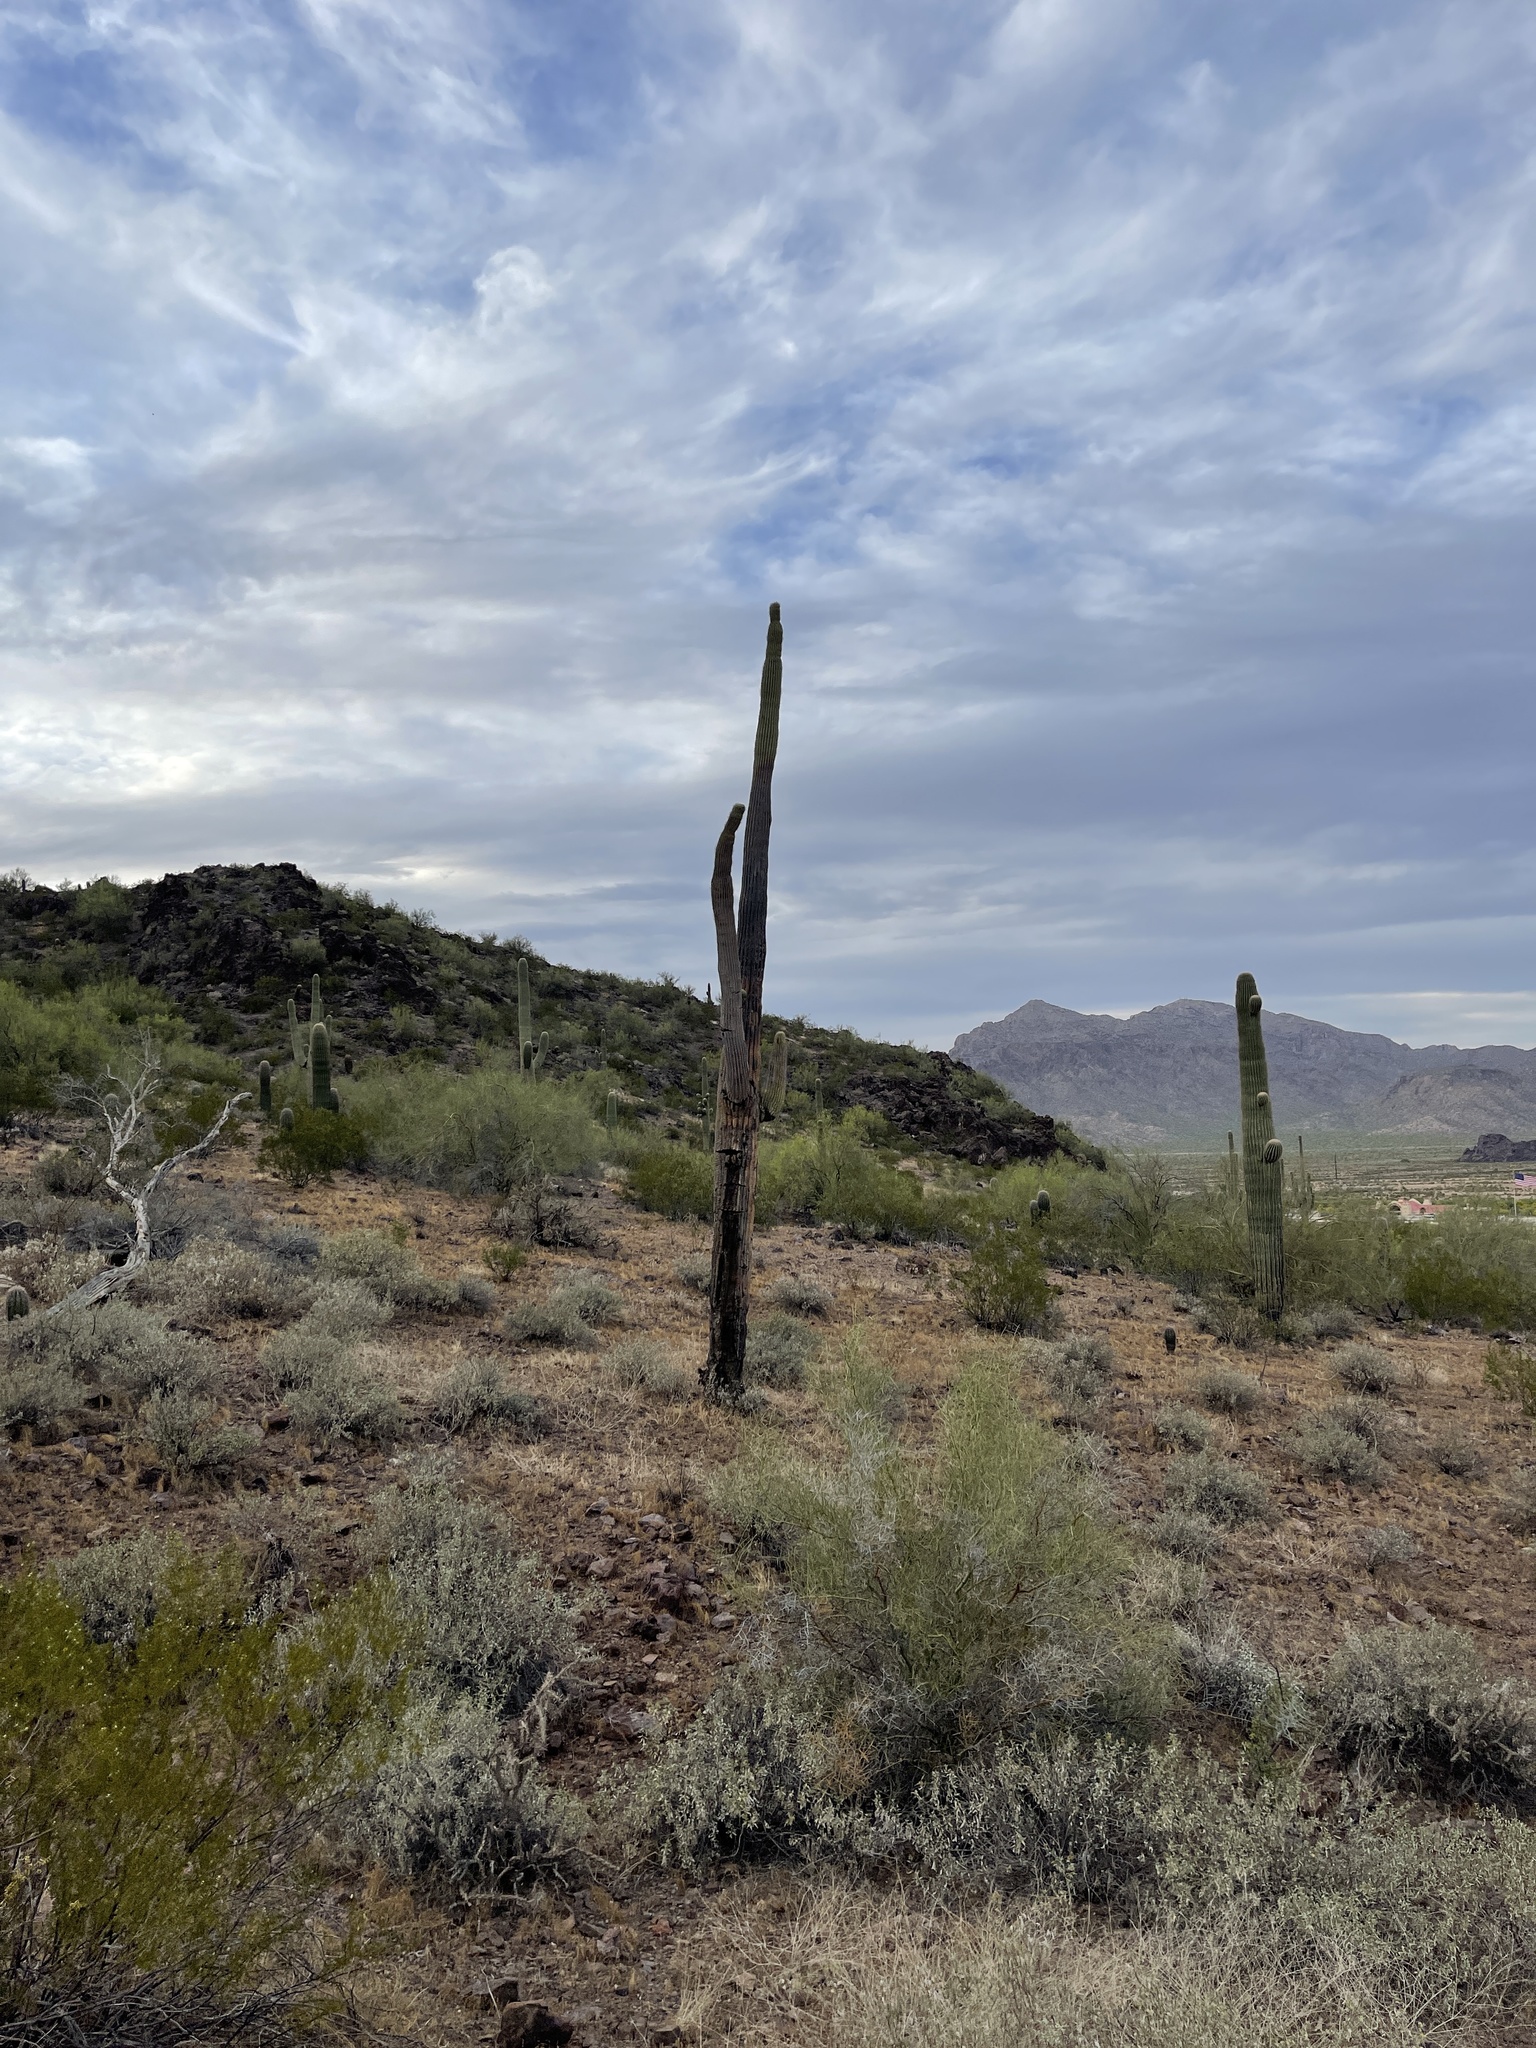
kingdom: Plantae
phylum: Tracheophyta
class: Magnoliopsida
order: Caryophyllales
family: Cactaceae
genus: Carnegiea
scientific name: Carnegiea gigantea
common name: Saguaro
